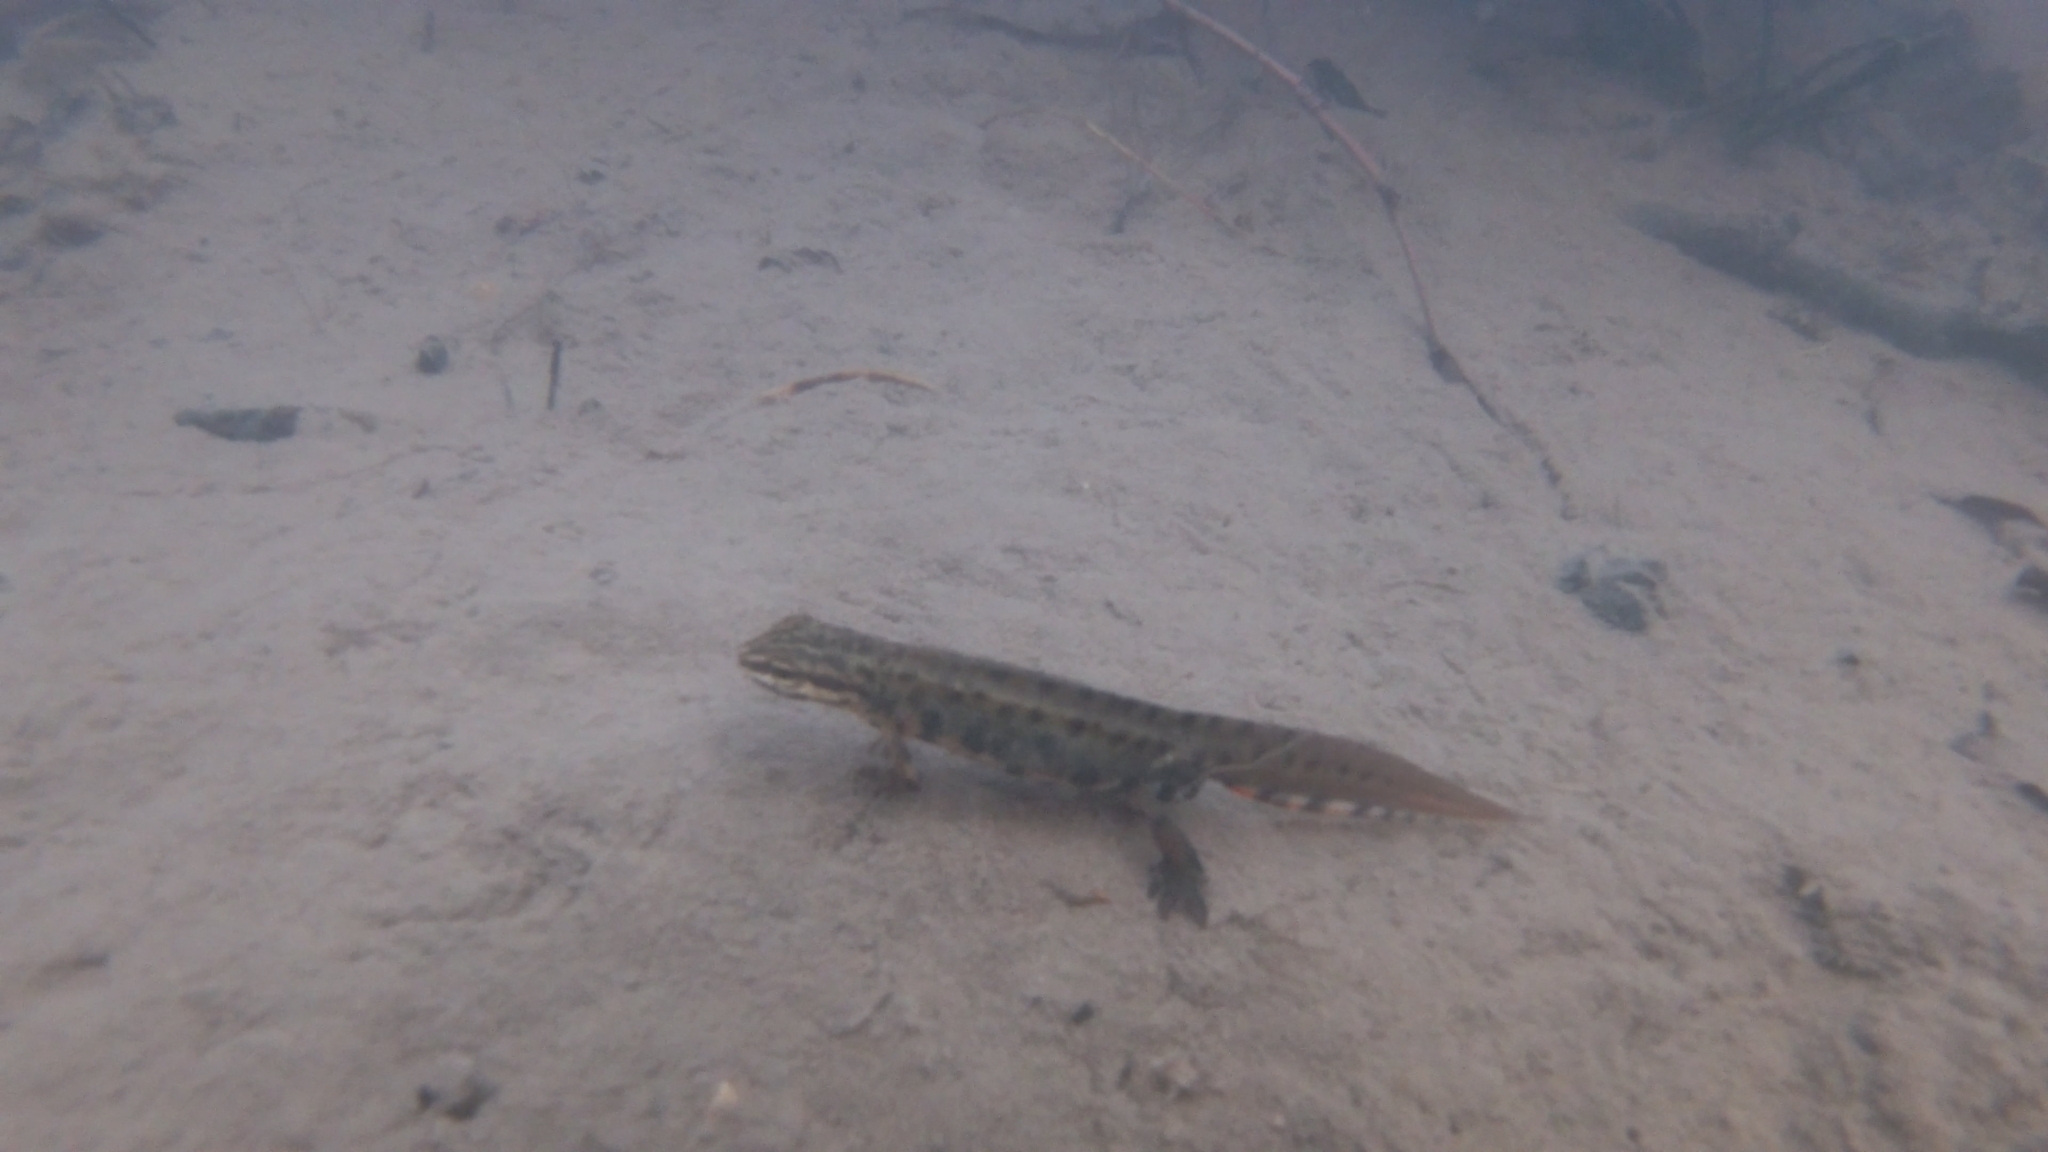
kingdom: Animalia
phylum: Chordata
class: Amphibia
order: Caudata
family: Salamandridae
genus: Lissotriton
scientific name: Lissotriton vulgaris
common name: Smooth newt
